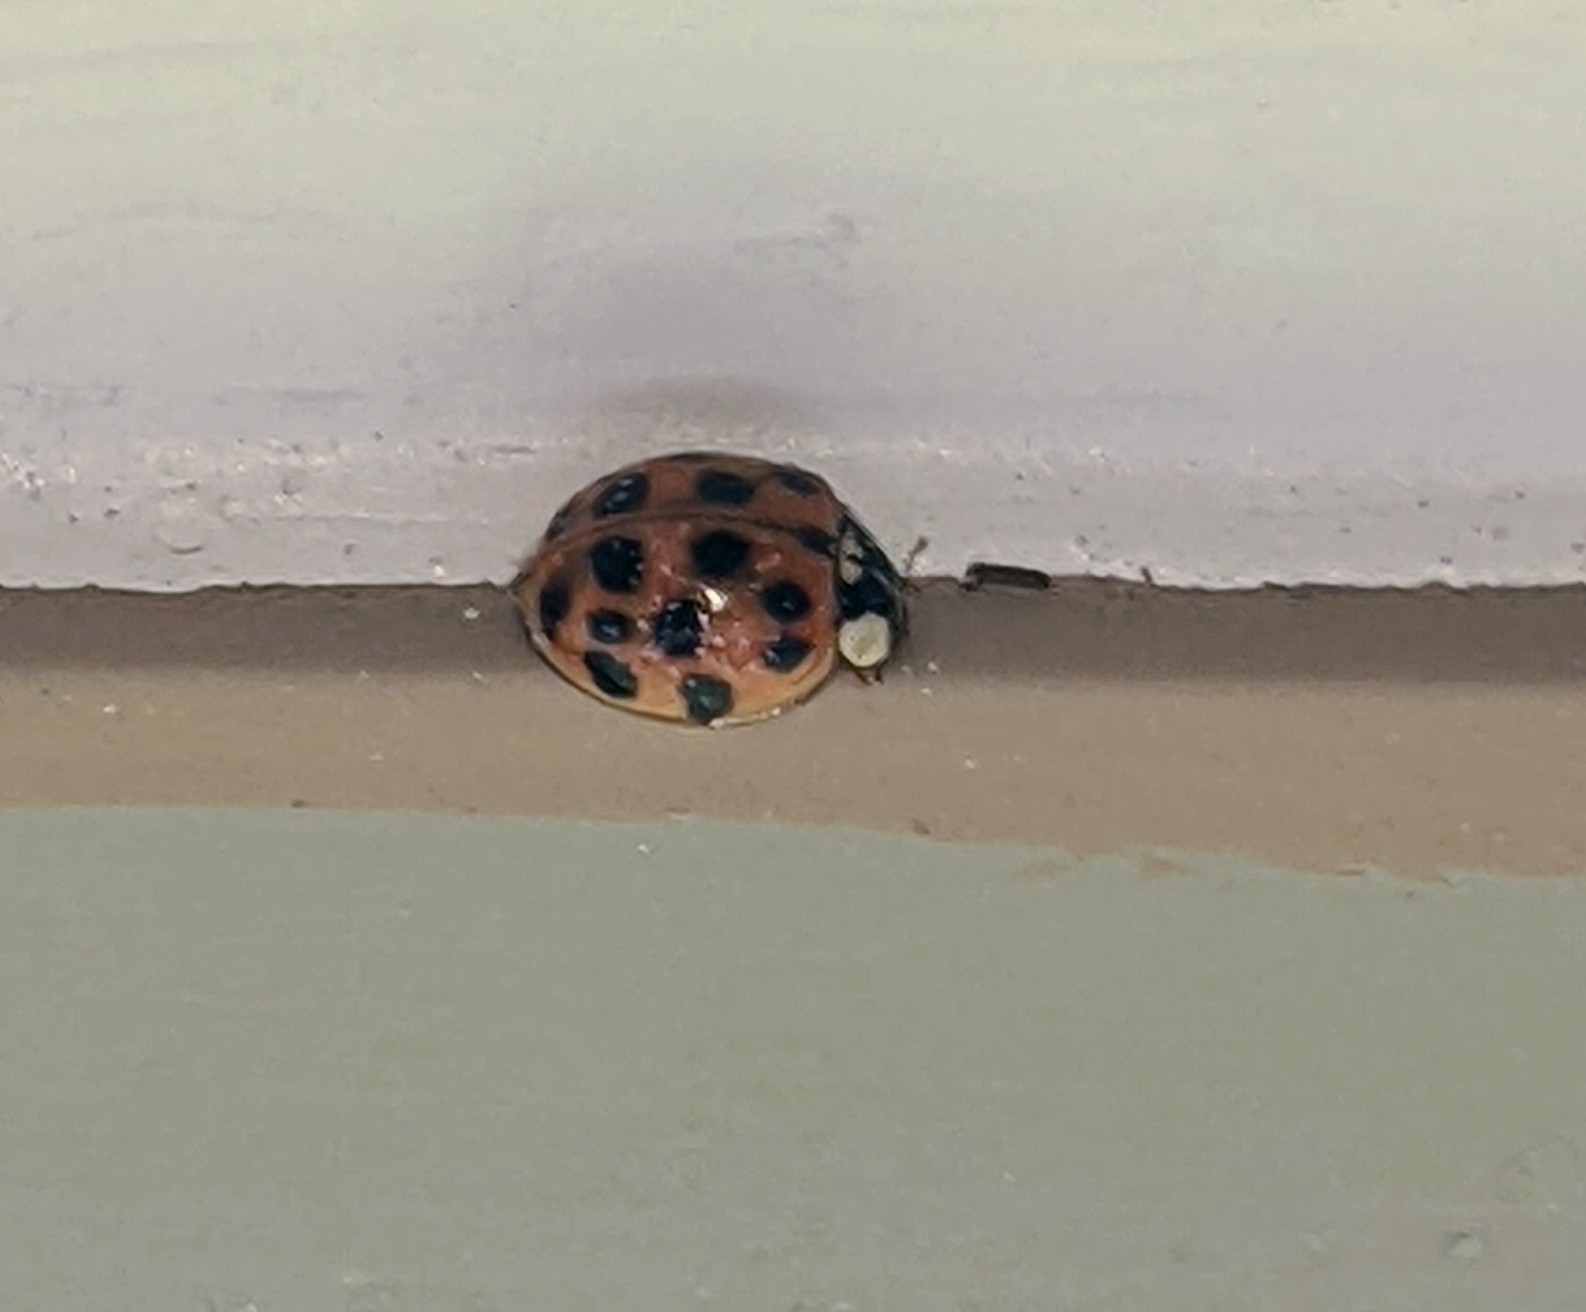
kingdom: Animalia
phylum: Arthropoda
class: Insecta
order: Coleoptera
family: Coccinellidae
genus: Harmonia
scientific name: Harmonia axyridis
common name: Harlequin ladybird
